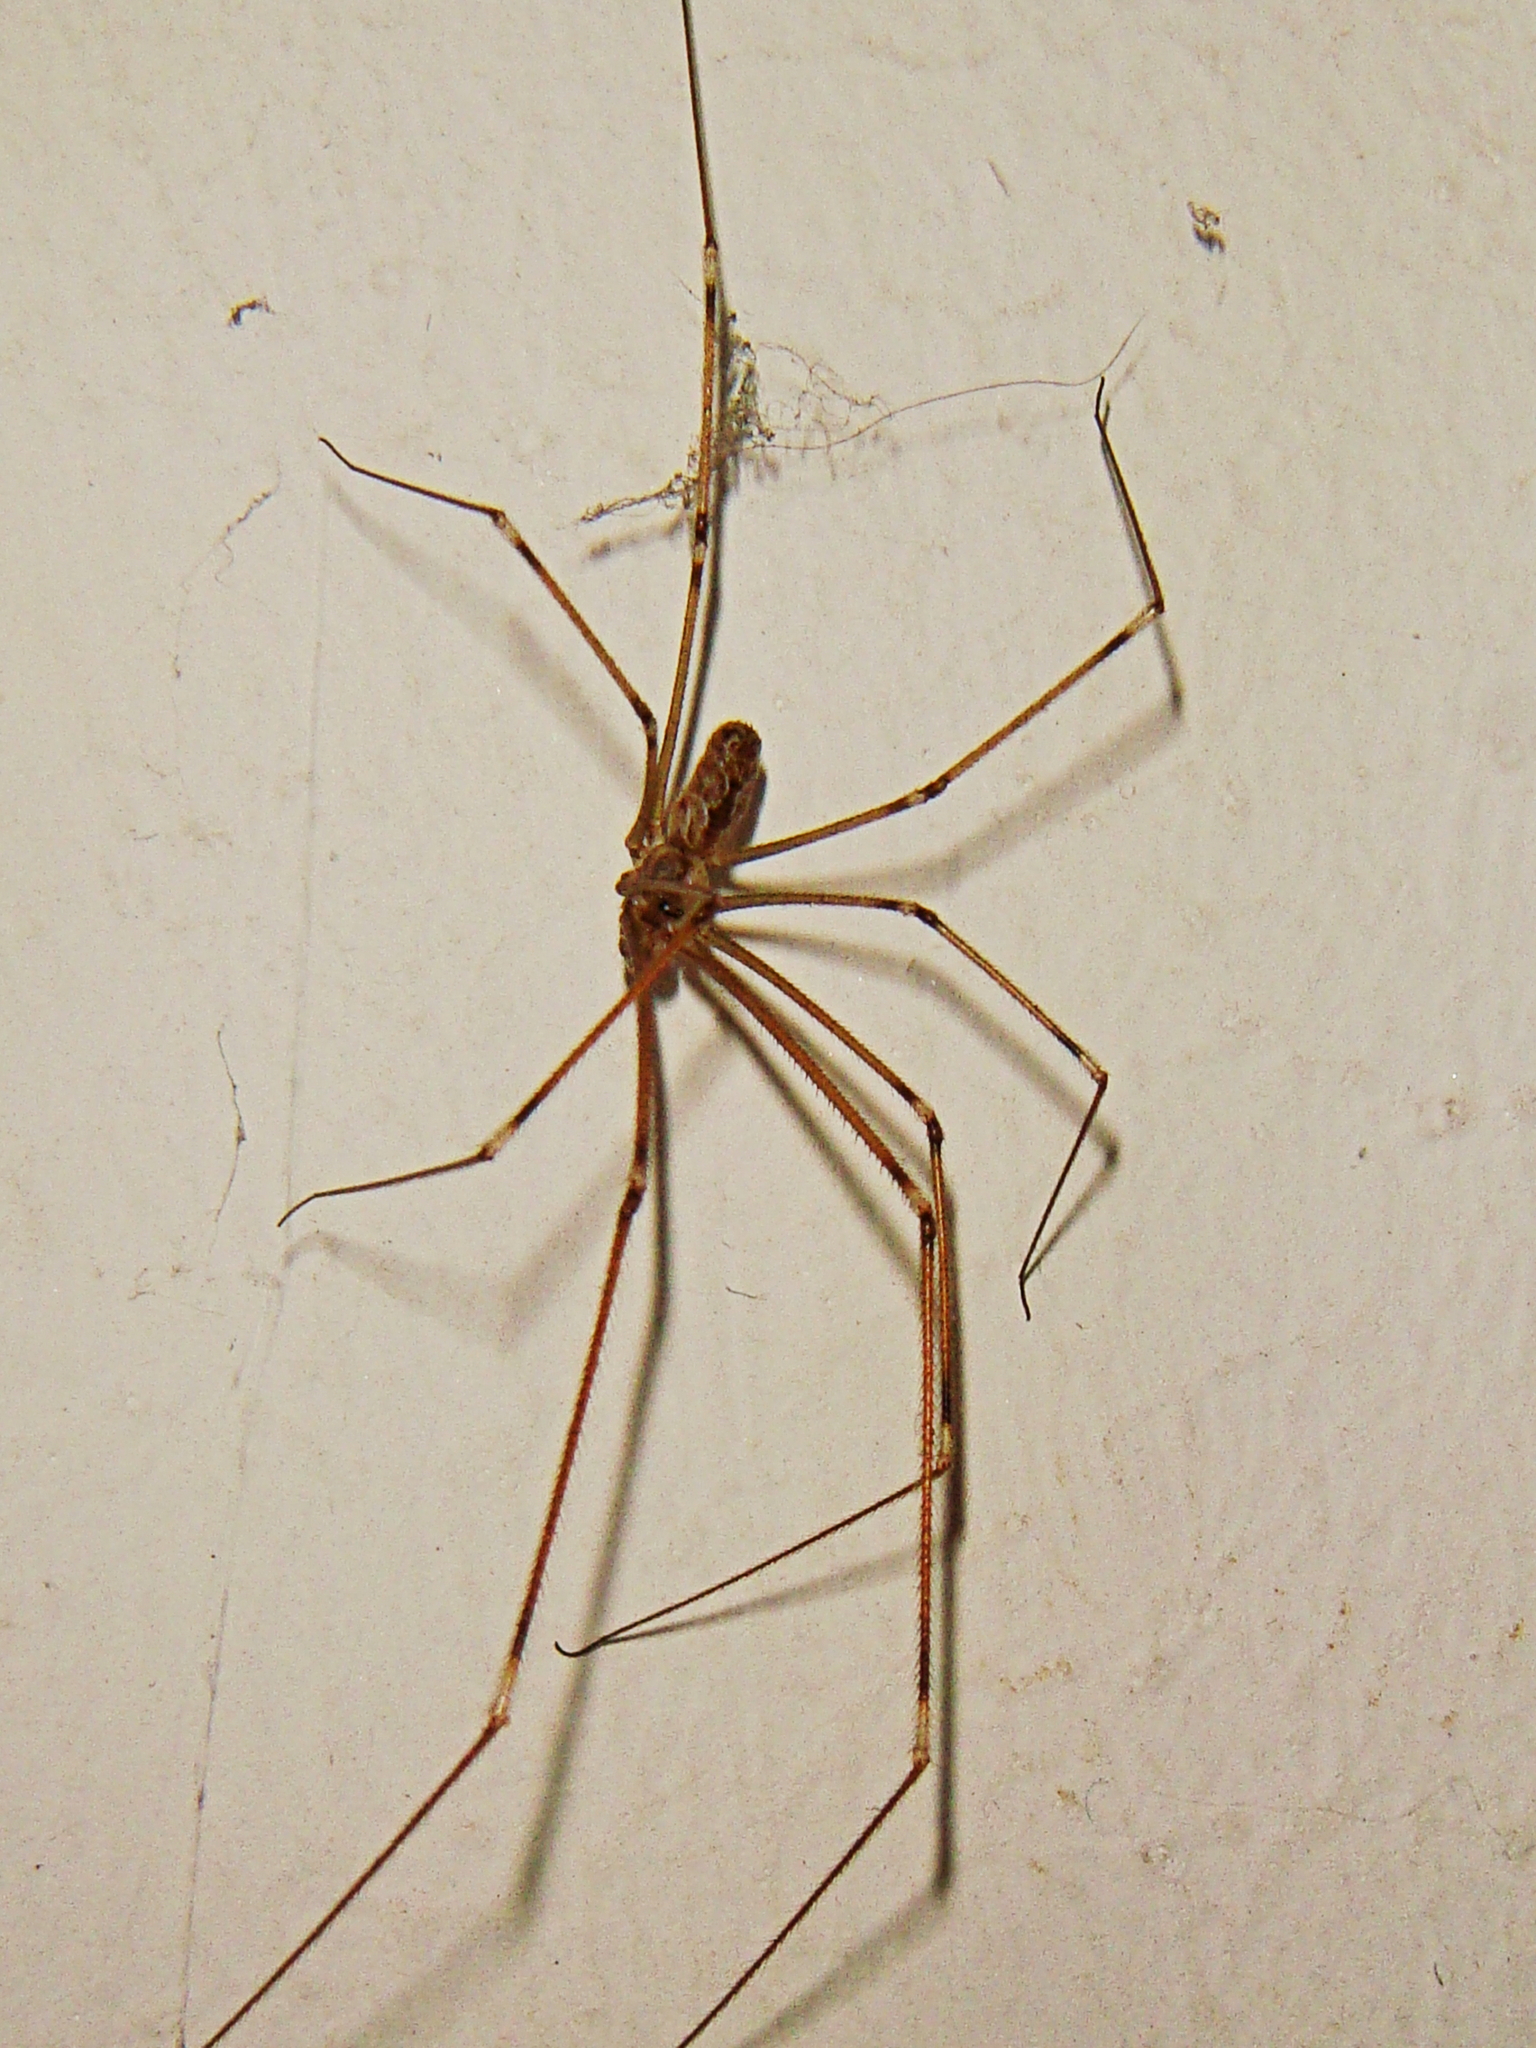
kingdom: Animalia
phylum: Arthropoda
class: Arachnida
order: Araneae
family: Pholcidae
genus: Holocnemus
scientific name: Holocnemus pluchei
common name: Marbled cellar spider
